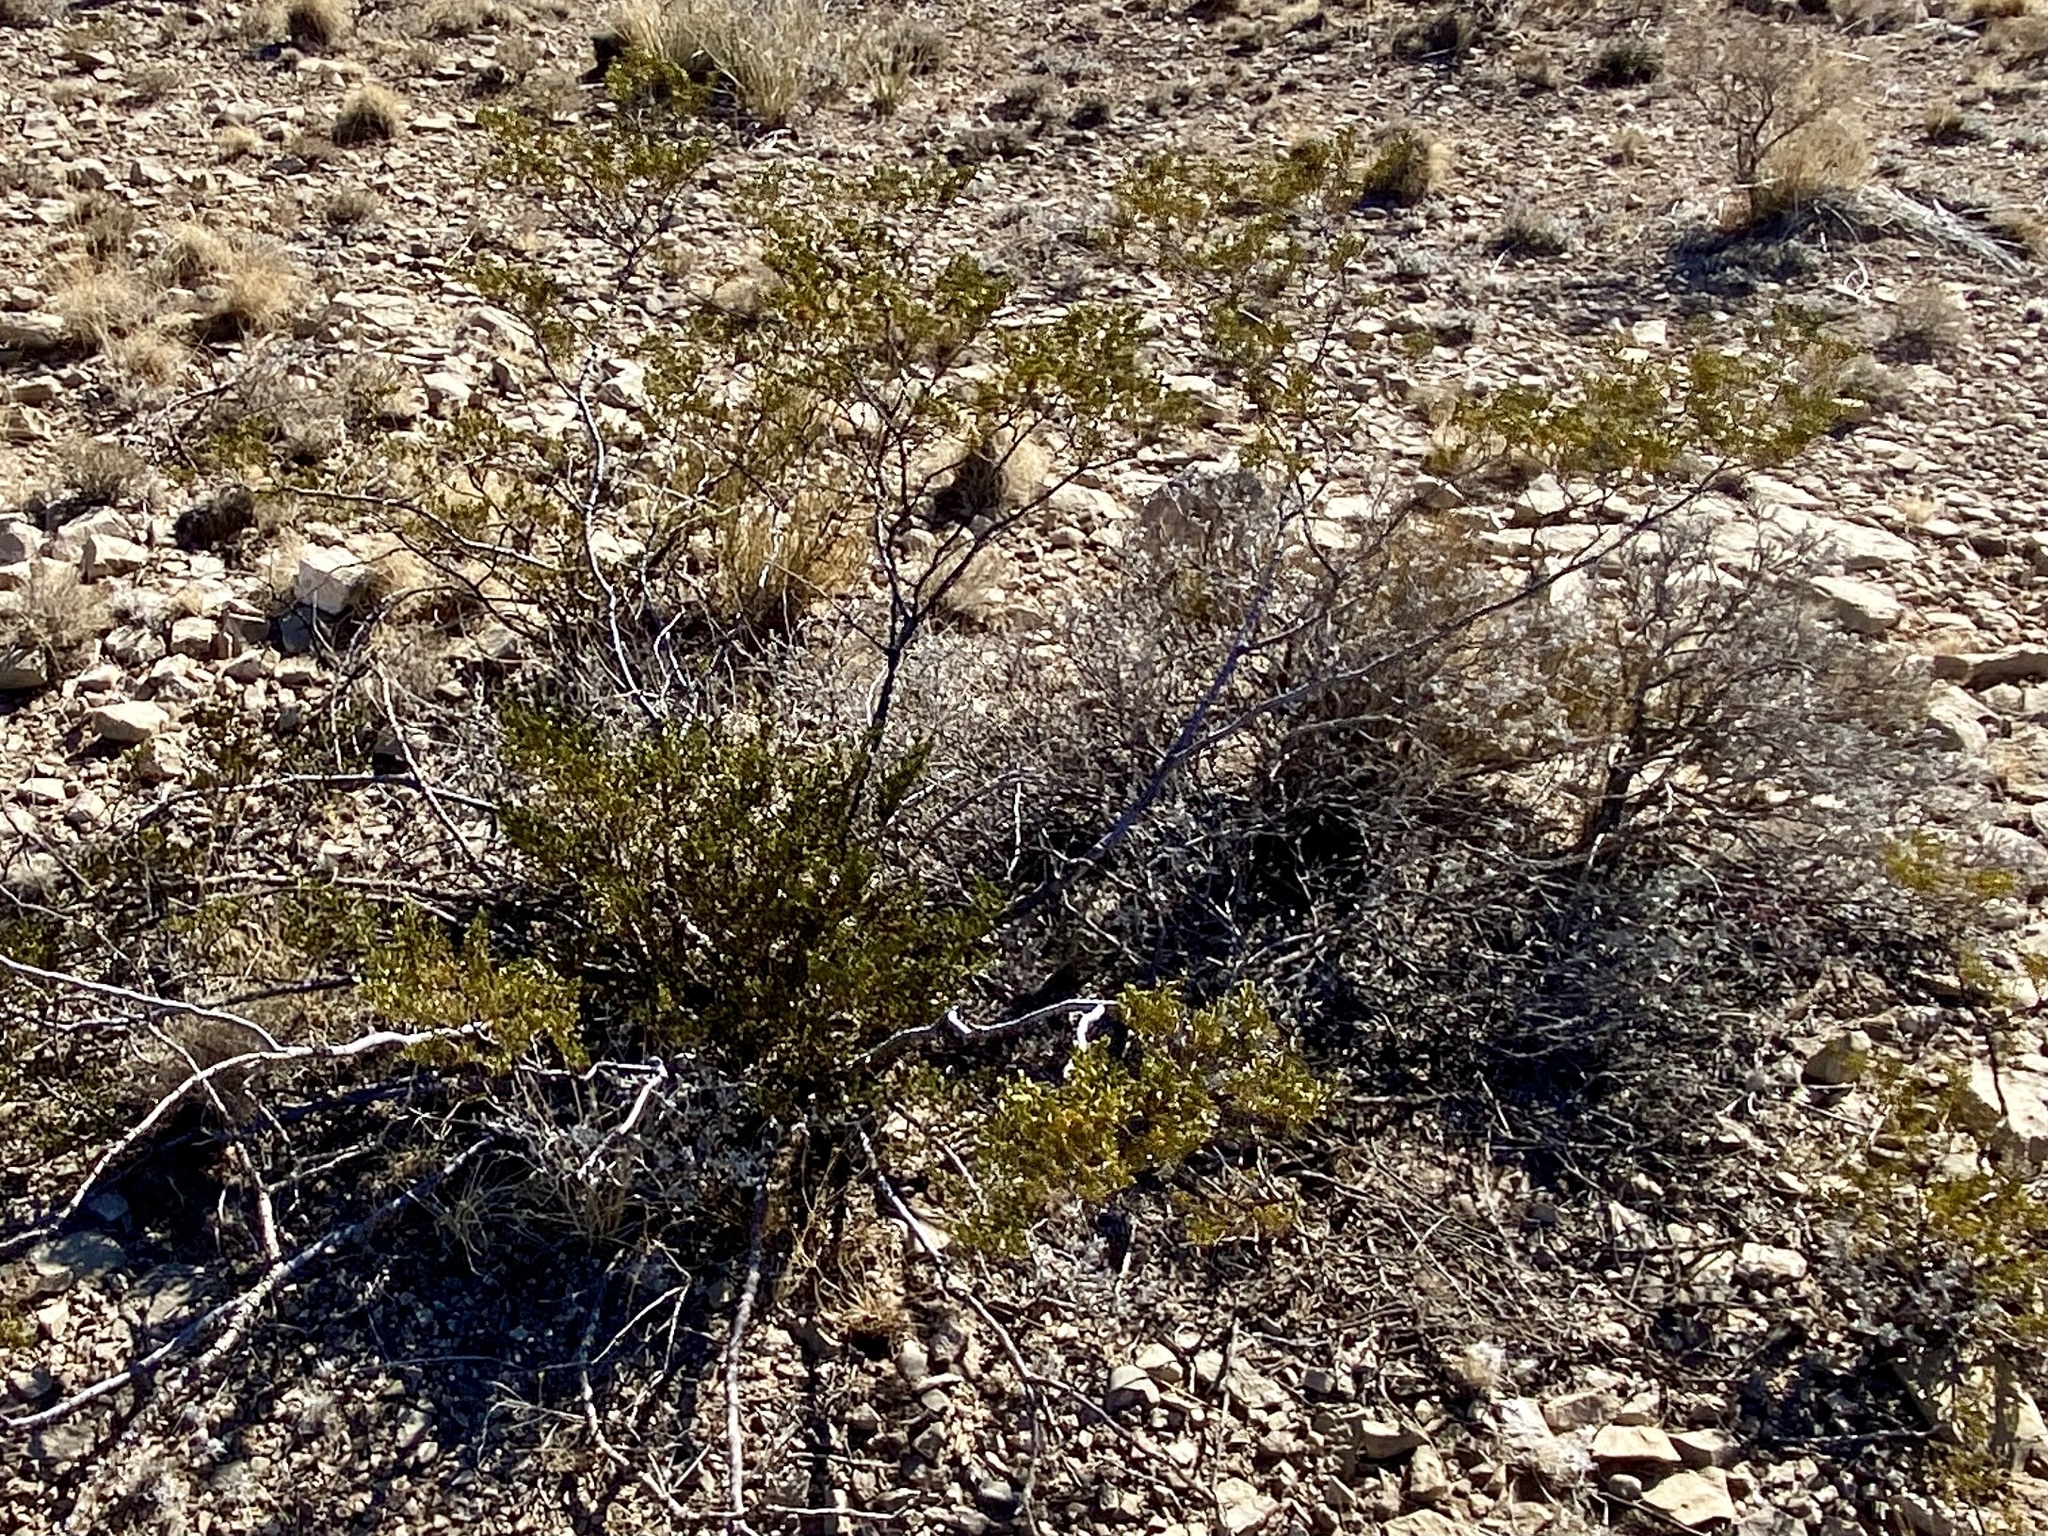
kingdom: Plantae
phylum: Tracheophyta
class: Magnoliopsida
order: Zygophyllales
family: Zygophyllaceae
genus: Larrea
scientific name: Larrea tridentata
